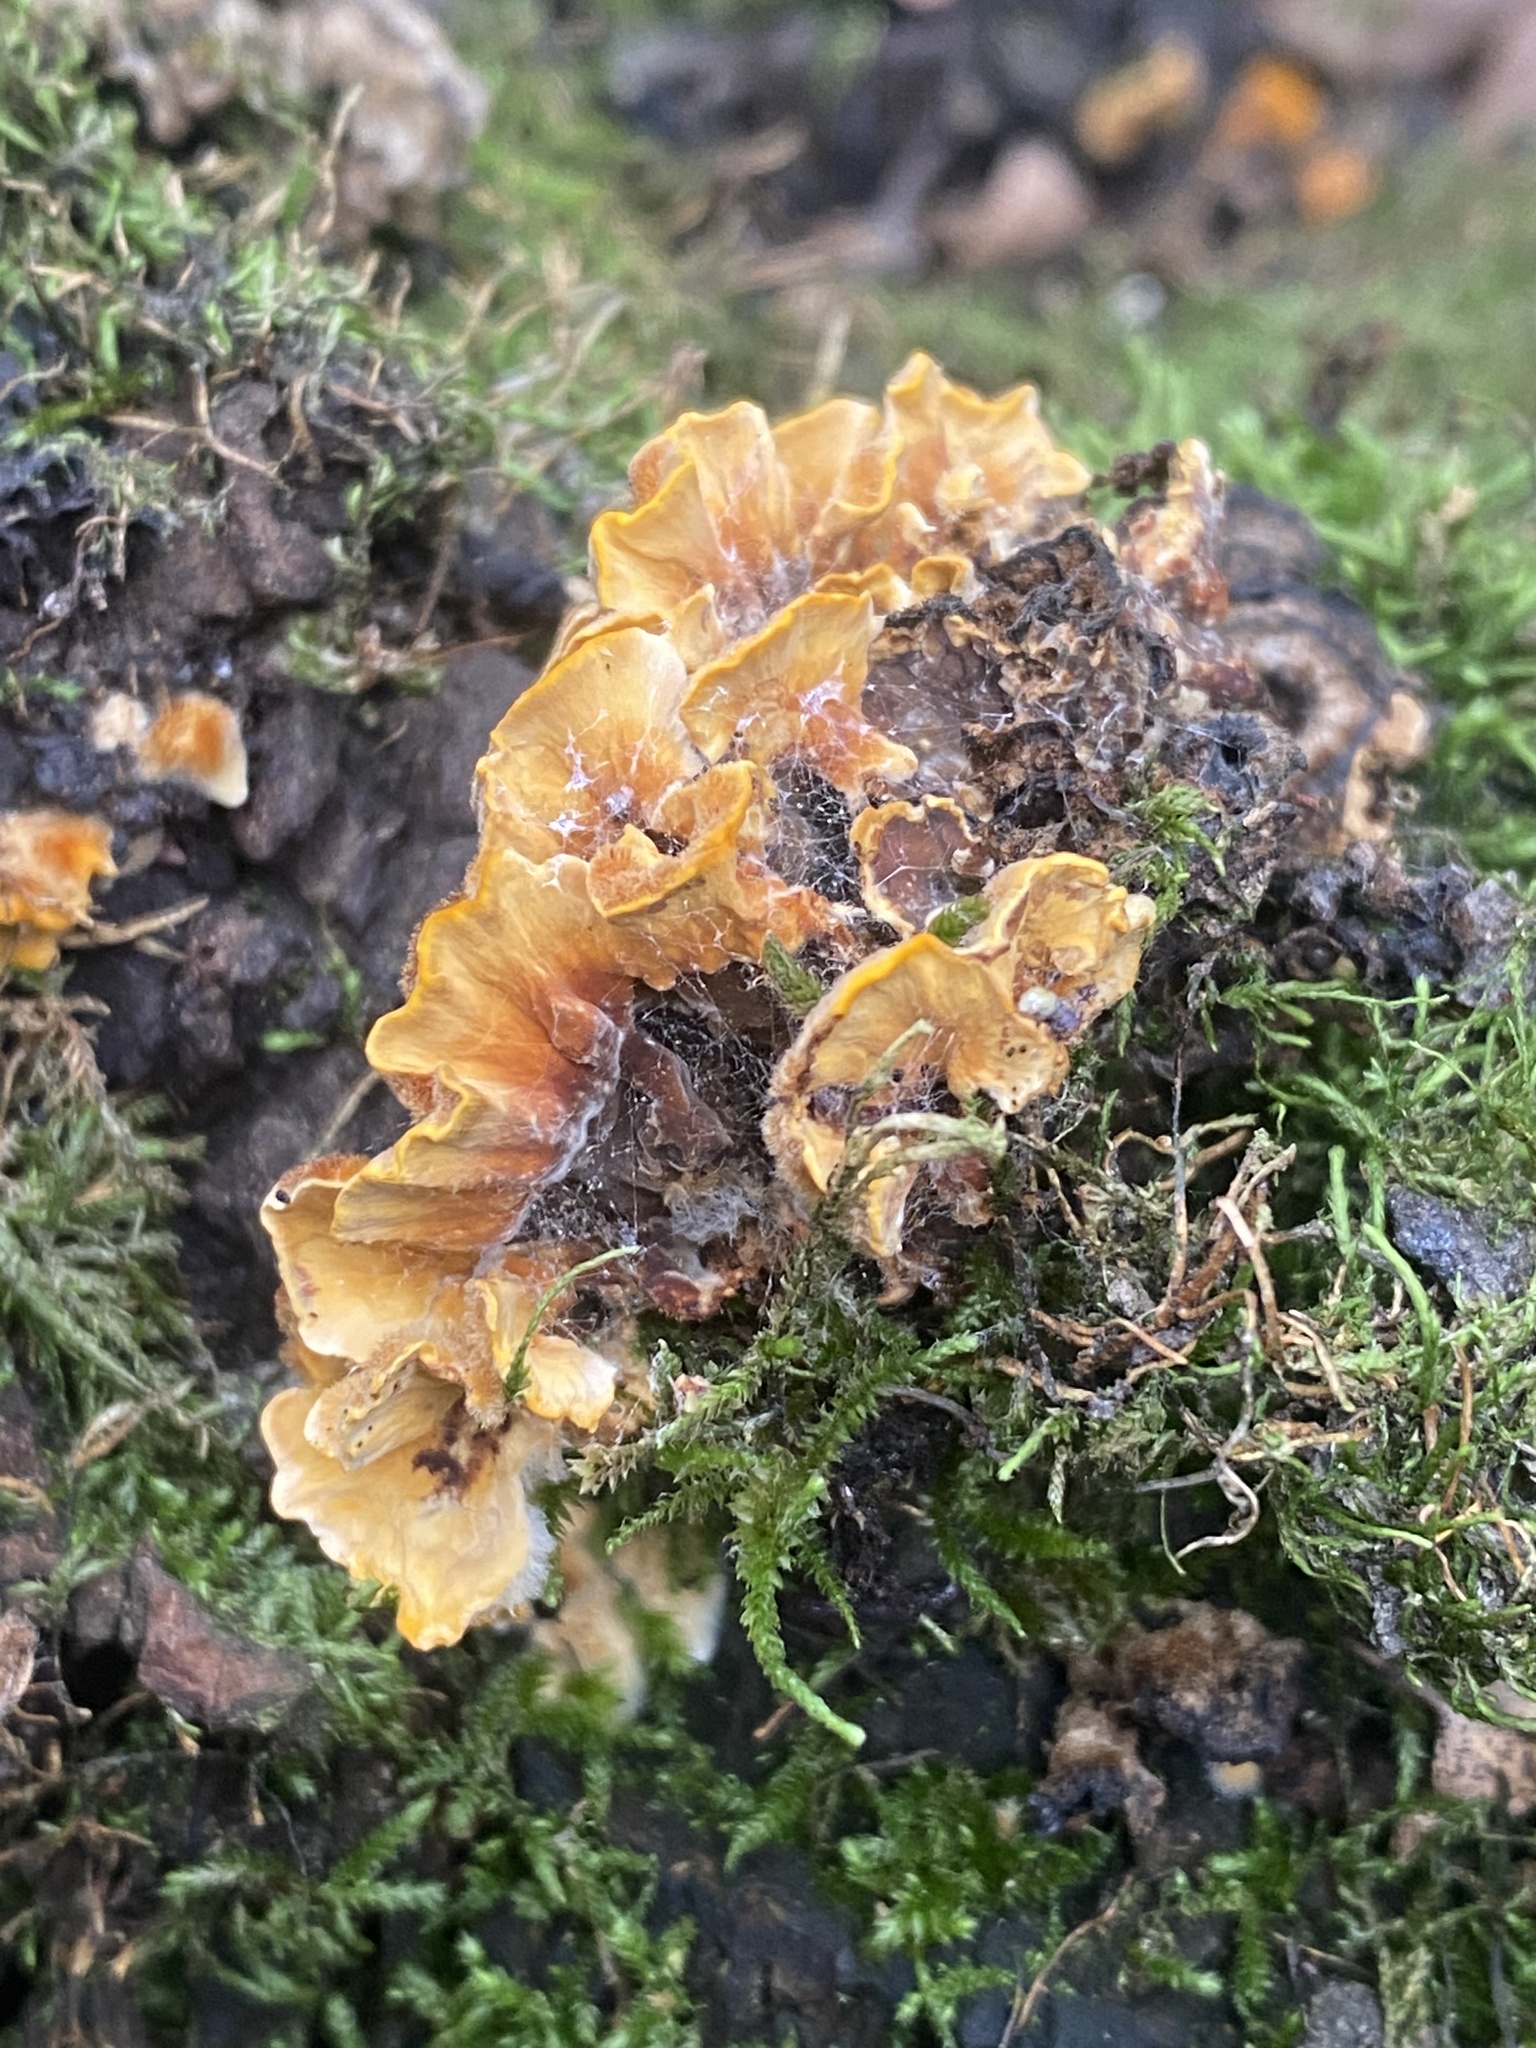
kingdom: Fungi
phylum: Basidiomycota
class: Agaricomycetes
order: Russulales
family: Stereaceae
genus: Stereum
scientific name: Stereum hirsutum
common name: Hairy curtain crust
